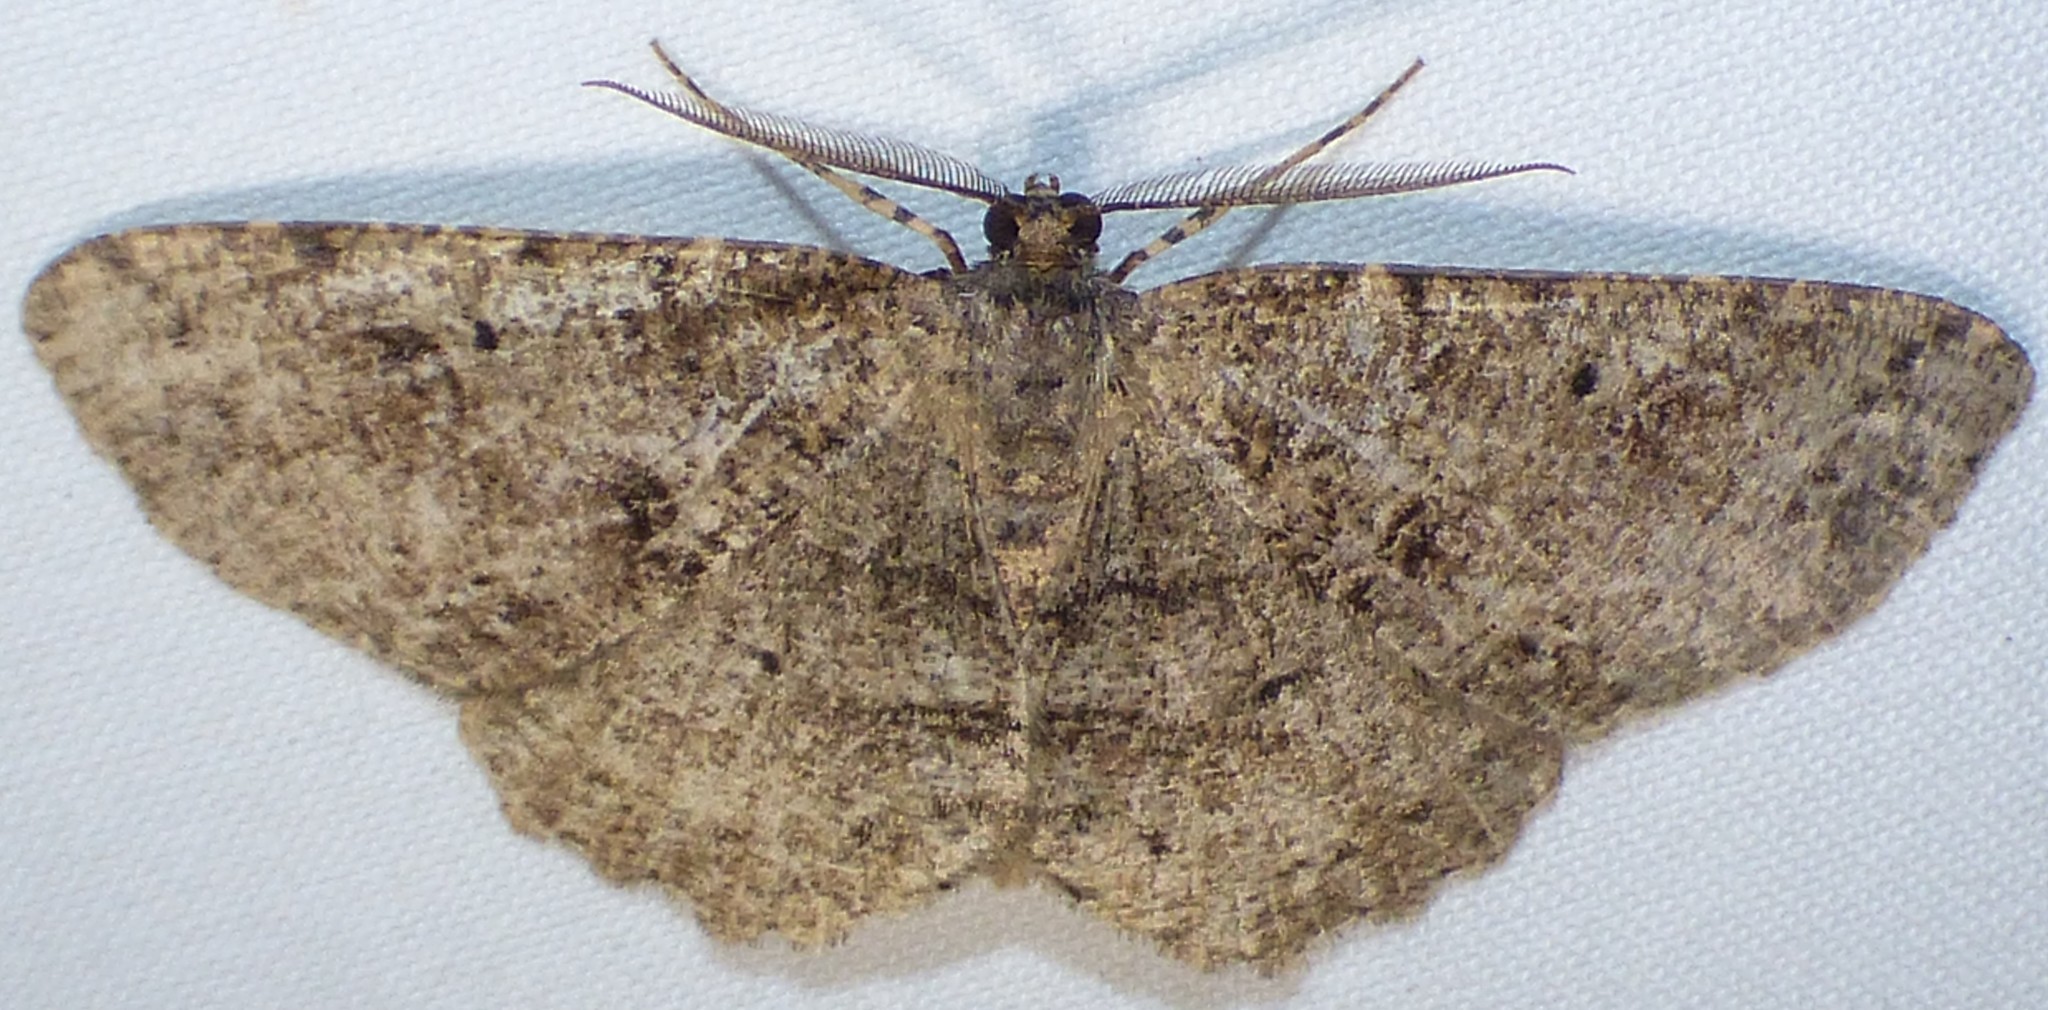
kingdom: Animalia
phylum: Arthropoda
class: Insecta
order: Lepidoptera
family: Geometridae
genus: Melanolophia
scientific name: Melanolophia canadaria
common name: Canadian melanolophia
